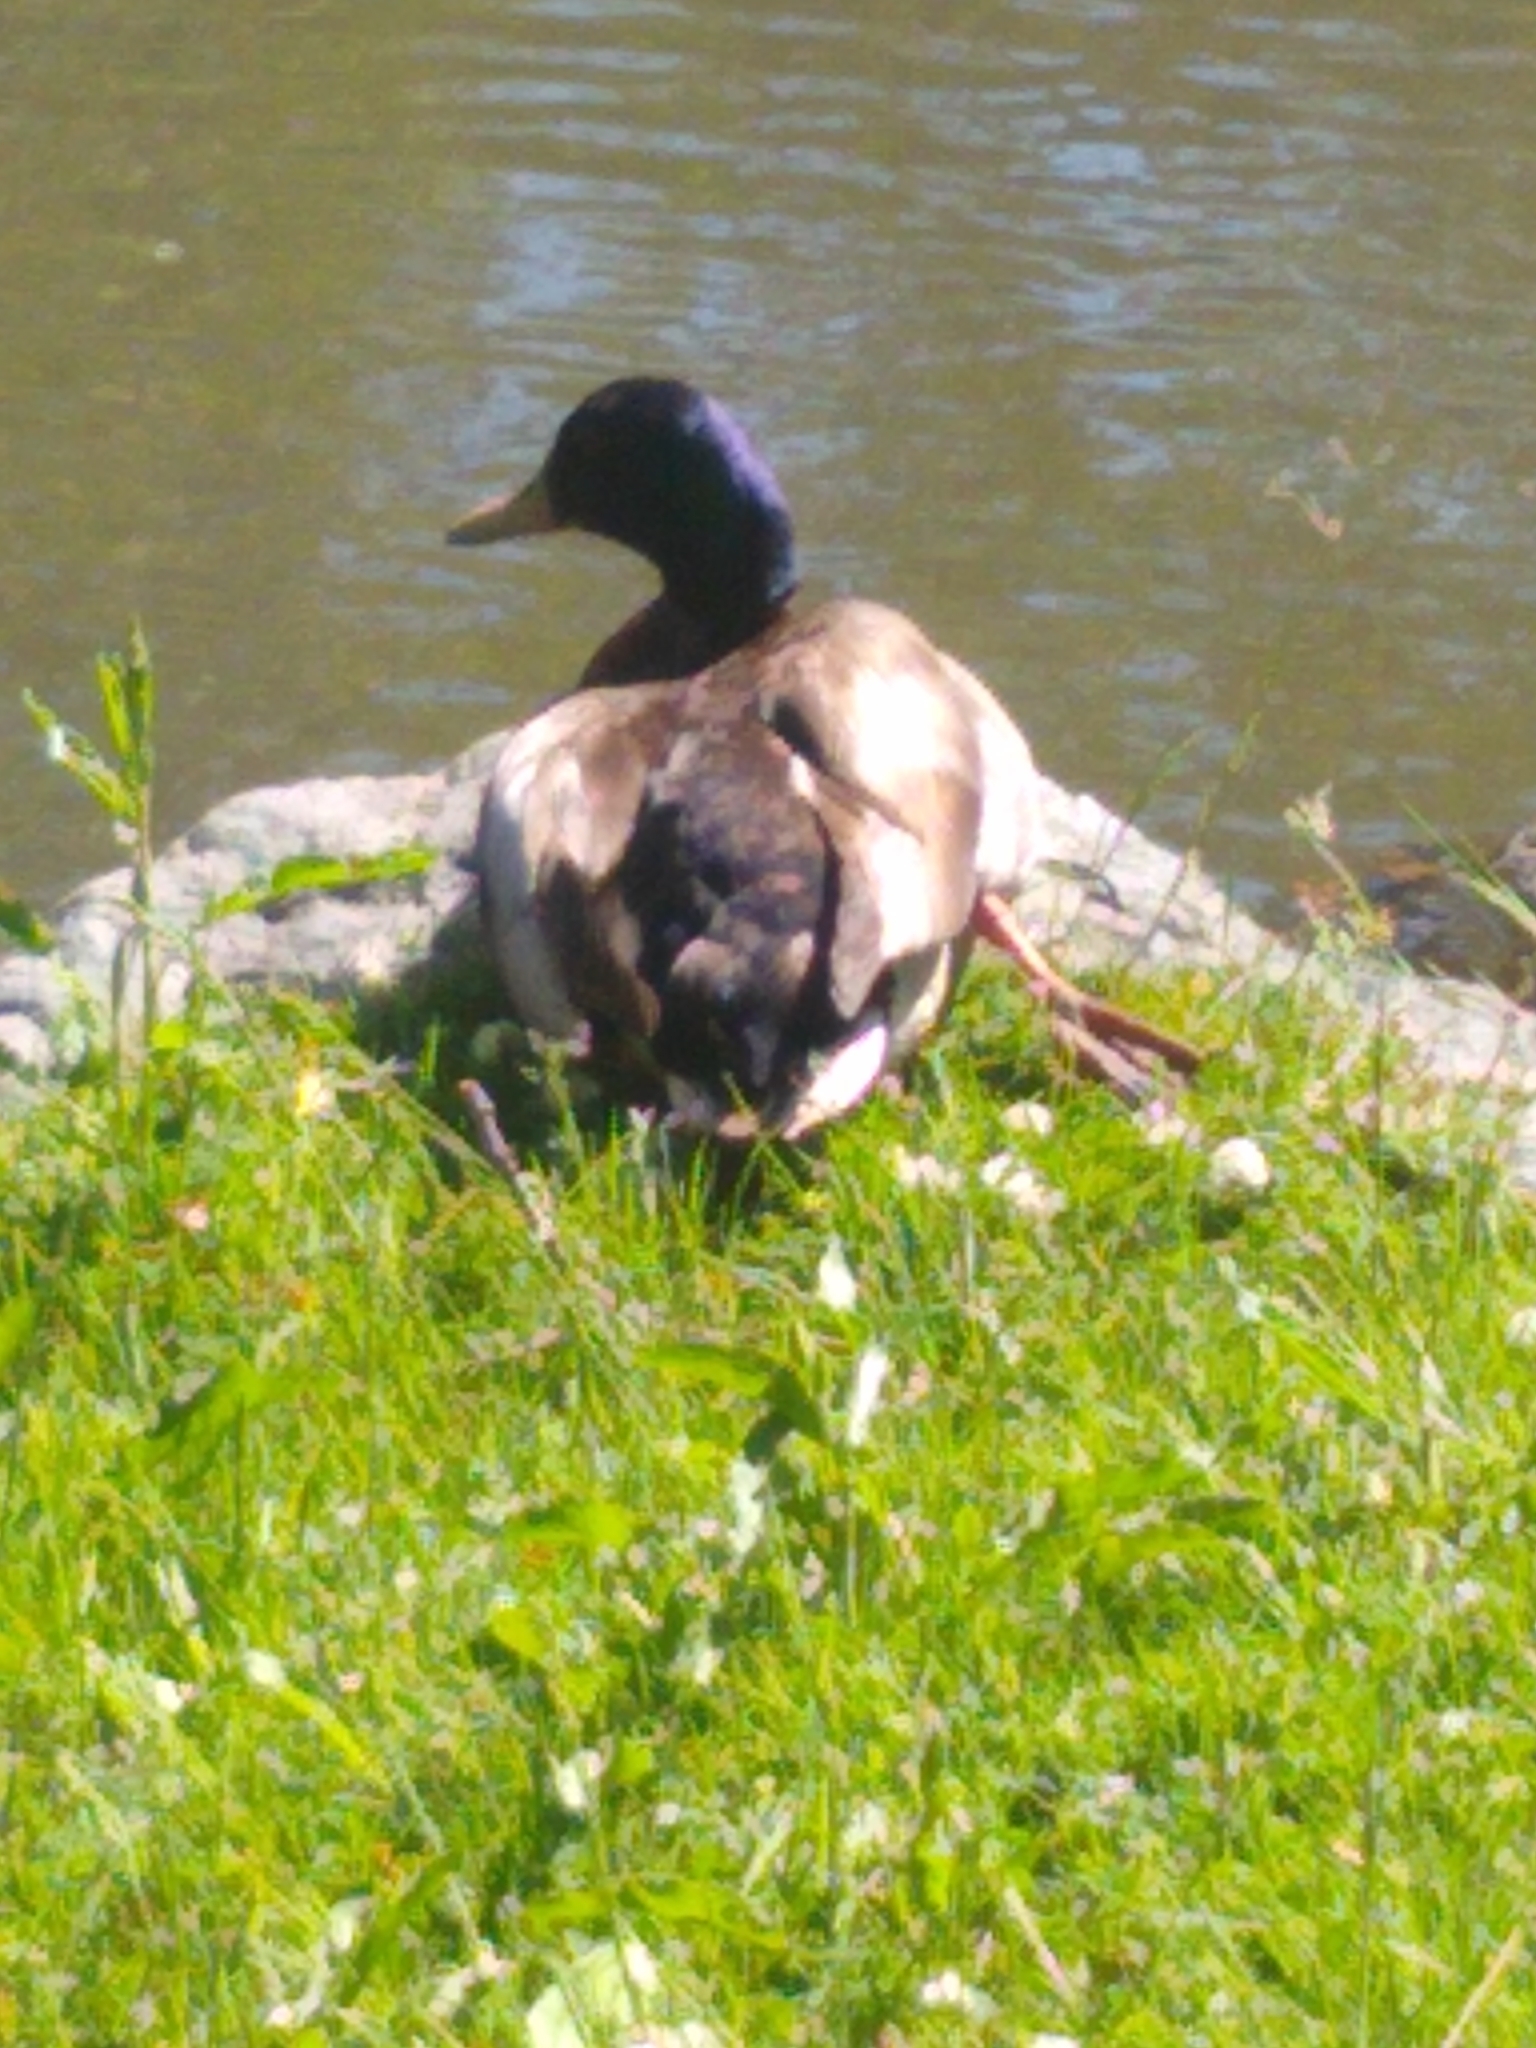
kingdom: Animalia
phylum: Chordata
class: Aves
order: Anseriformes
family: Anatidae
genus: Anas
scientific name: Anas platyrhynchos
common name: Mallard
